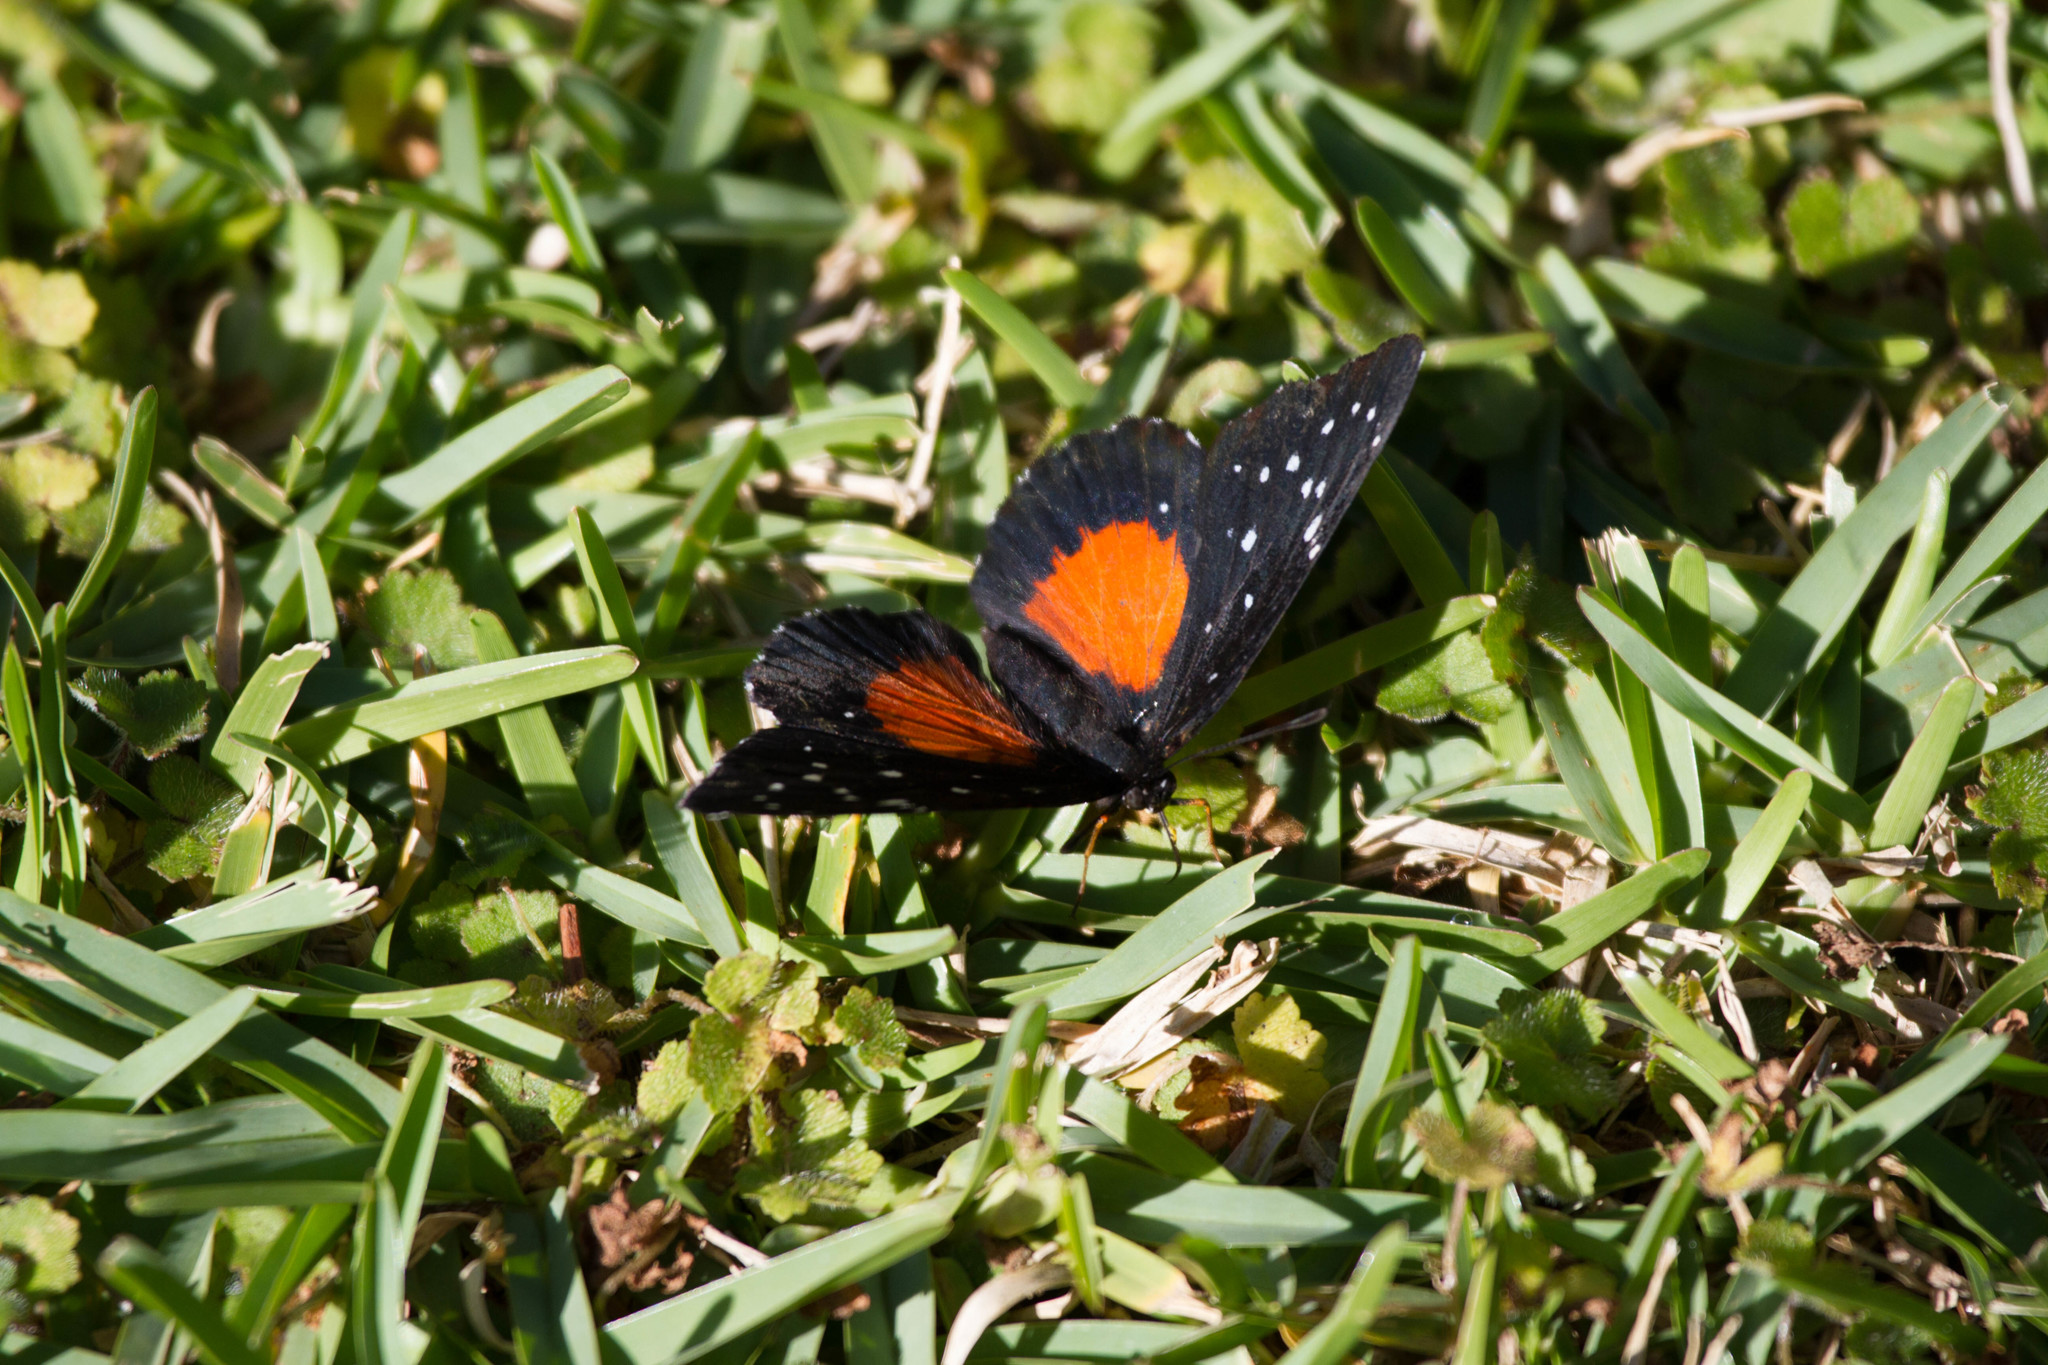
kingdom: Animalia
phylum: Arthropoda
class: Insecta
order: Lepidoptera
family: Nymphalidae
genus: Chlosyne
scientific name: Chlosyne janais
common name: Crimson patch
